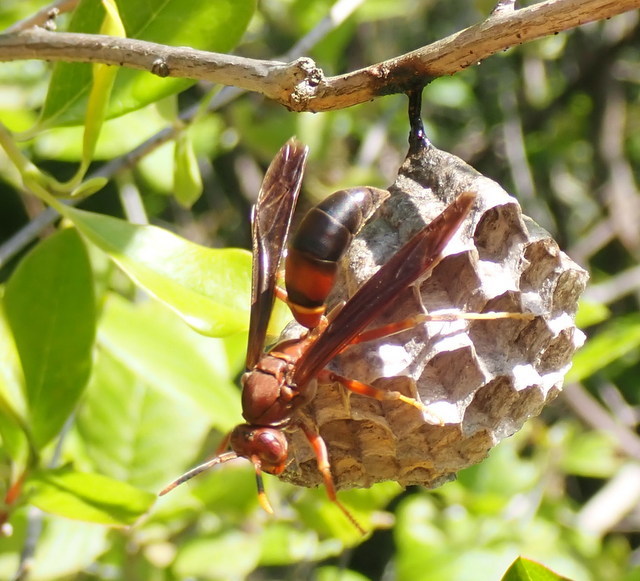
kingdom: Animalia
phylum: Arthropoda
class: Insecta
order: Hymenoptera
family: Eumenidae
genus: Polistes
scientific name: Polistes annularis
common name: Ringed paper wasp
